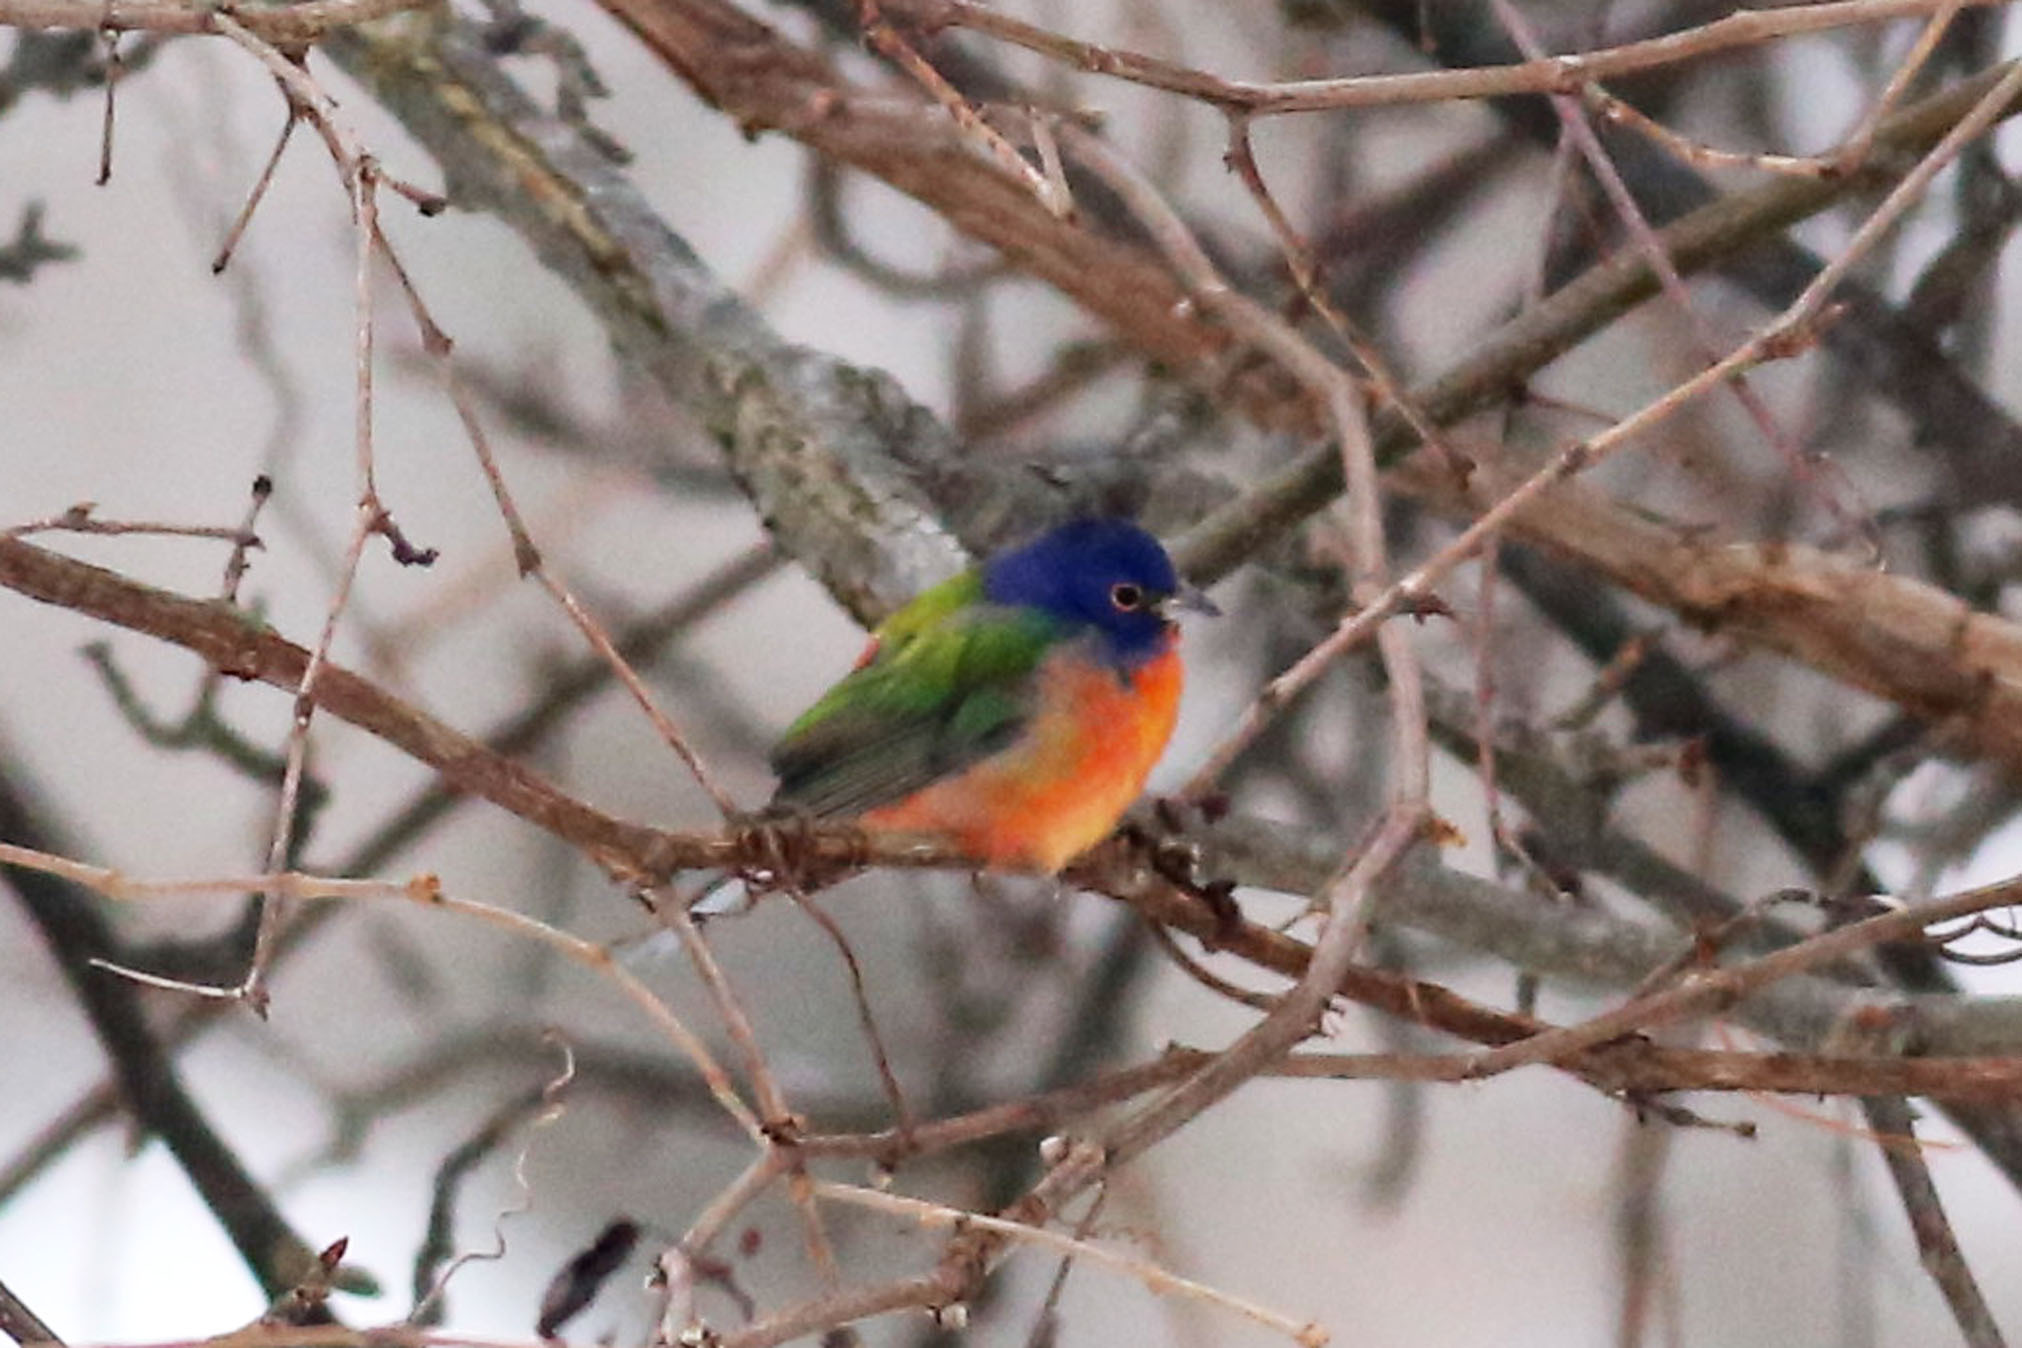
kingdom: Animalia
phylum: Chordata
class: Aves
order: Passeriformes
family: Cardinalidae
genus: Passerina
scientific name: Passerina ciris
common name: Painted bunting
